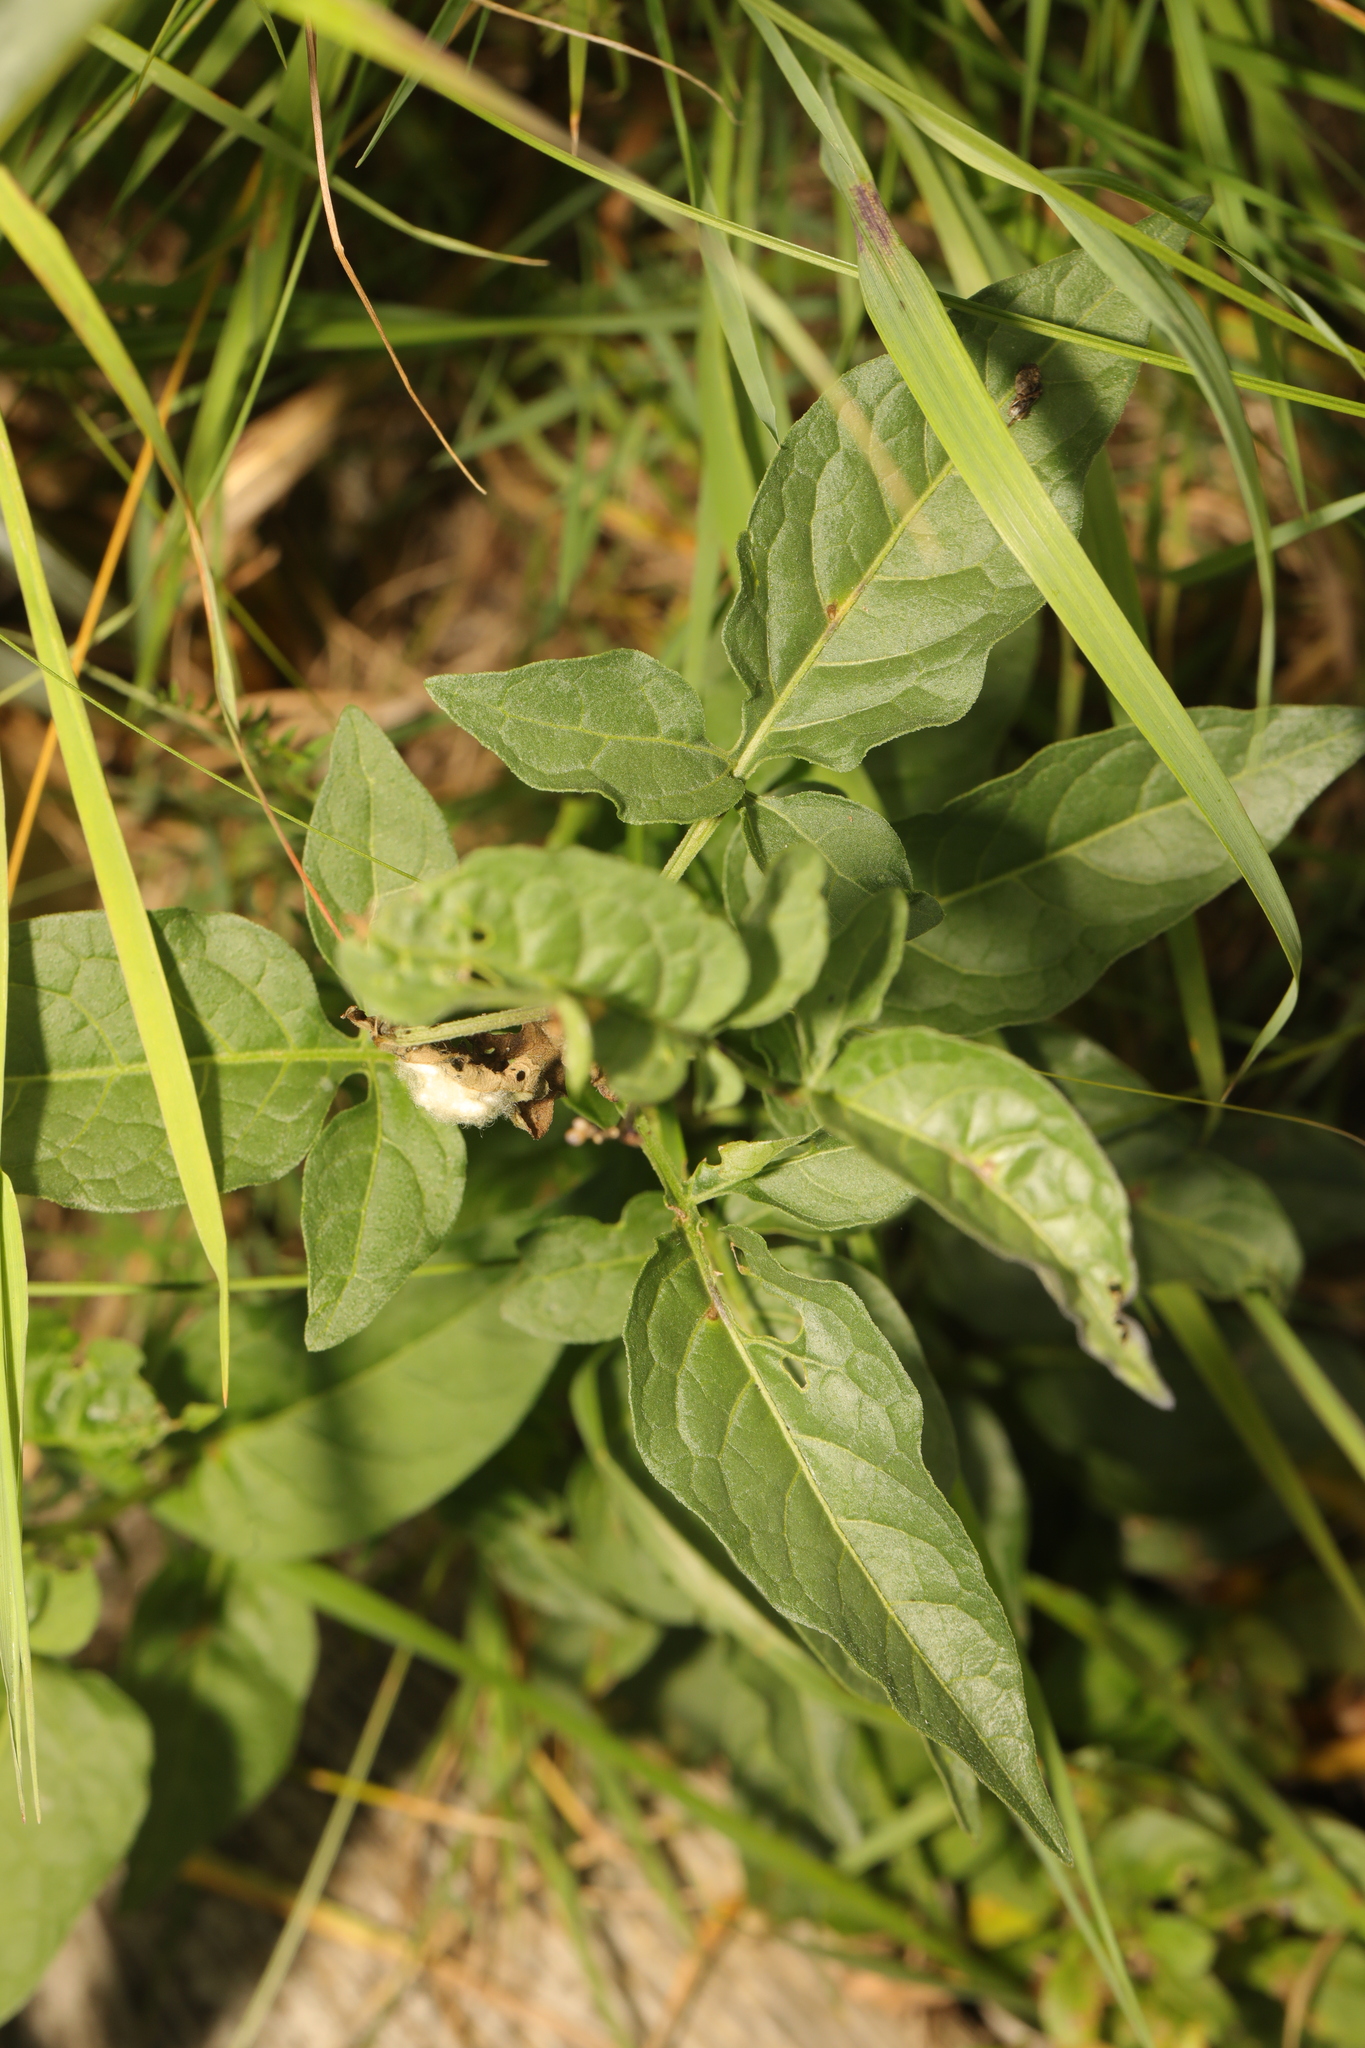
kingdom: Plantae
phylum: Tracheophyta
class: Magnoliopsida
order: Solanales
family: Solanaceae
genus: Solanum
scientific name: Solanum dulcamara
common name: Climbing nightshade
